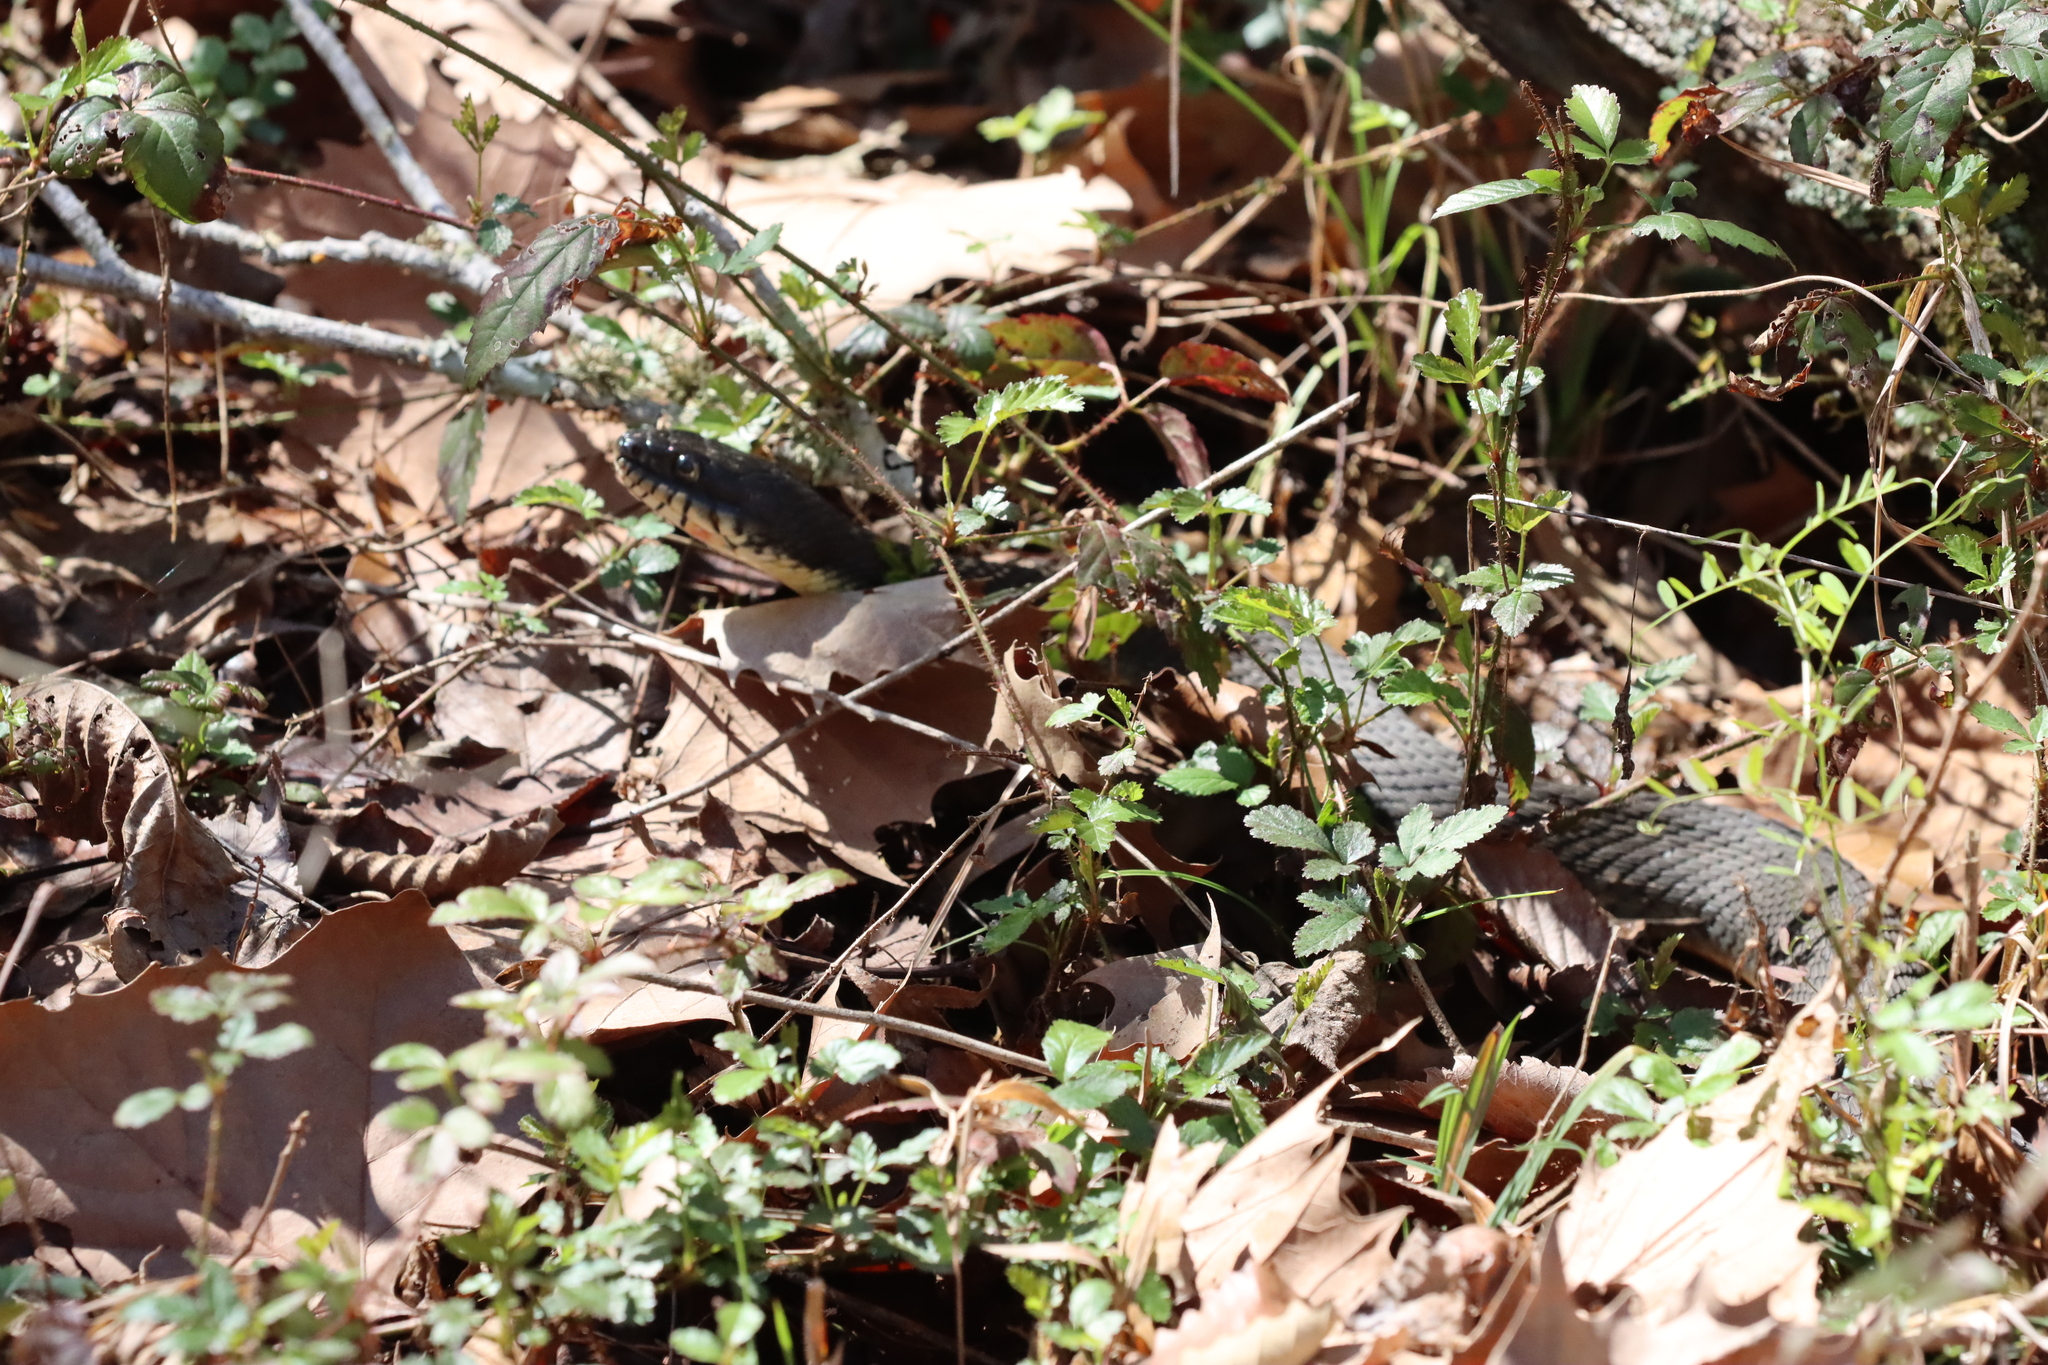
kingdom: Animalia
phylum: Chordata
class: Squamata
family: Colubridae
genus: Nerodia
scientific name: Nerodia erythrogaster
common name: Plainbelly water snake
